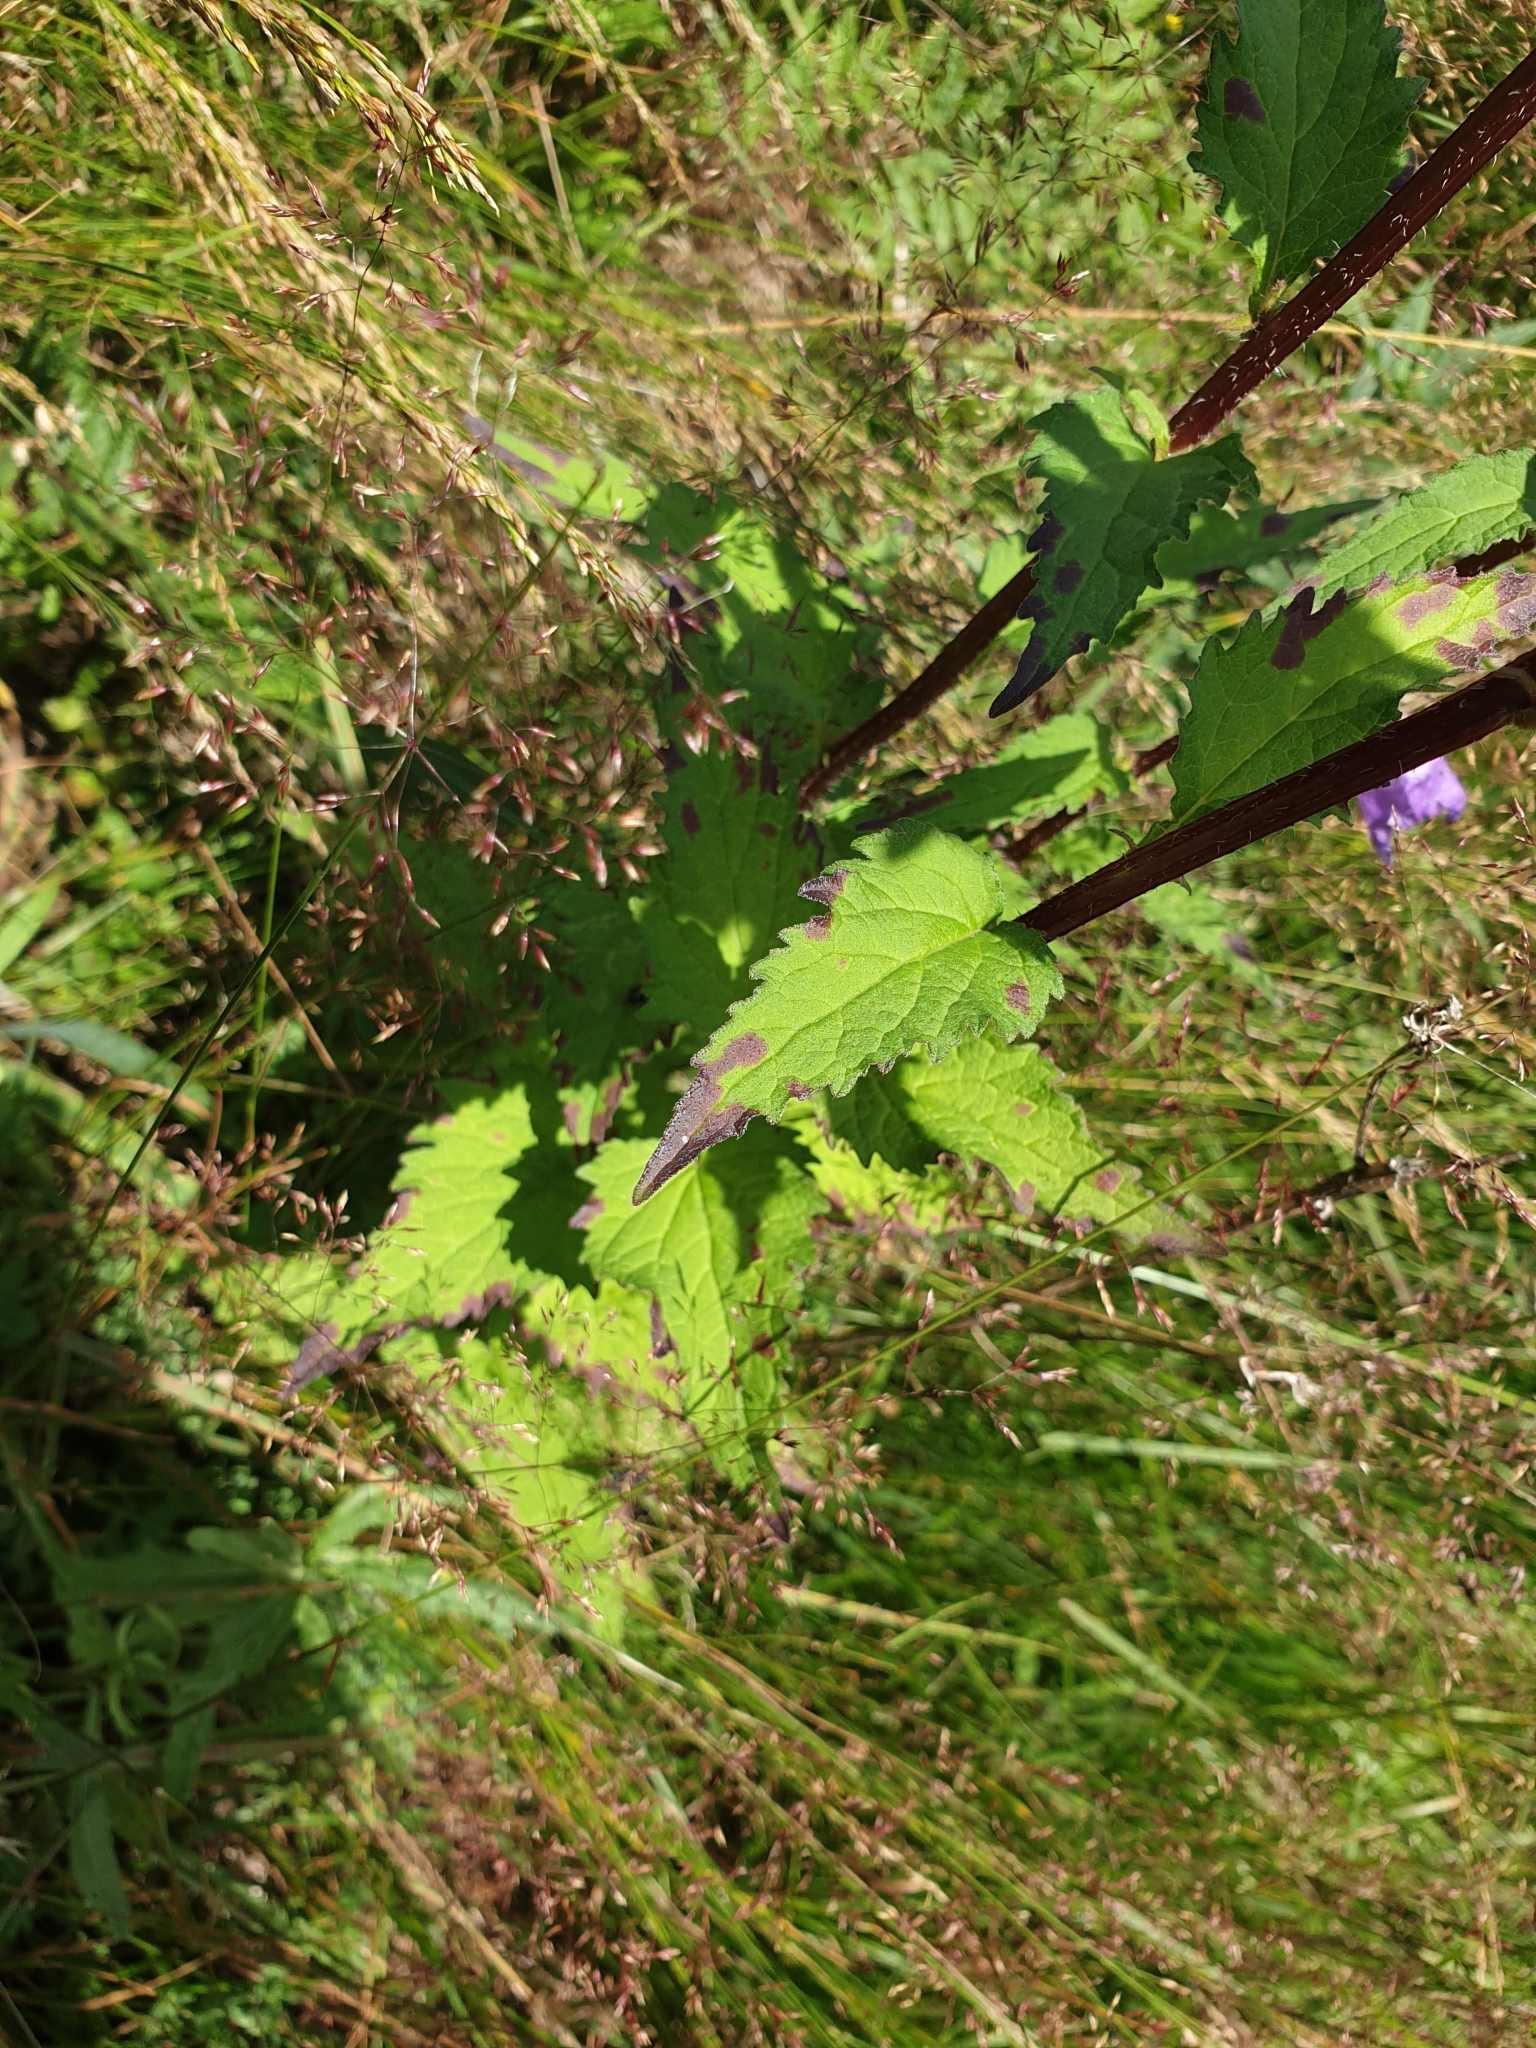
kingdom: Plantae
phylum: Tracheophyta
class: Magnoliopsida
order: Asterales
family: Campanulaceae
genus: Campanula
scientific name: Campanula trachelium
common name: Nettle-leaved bellflower
